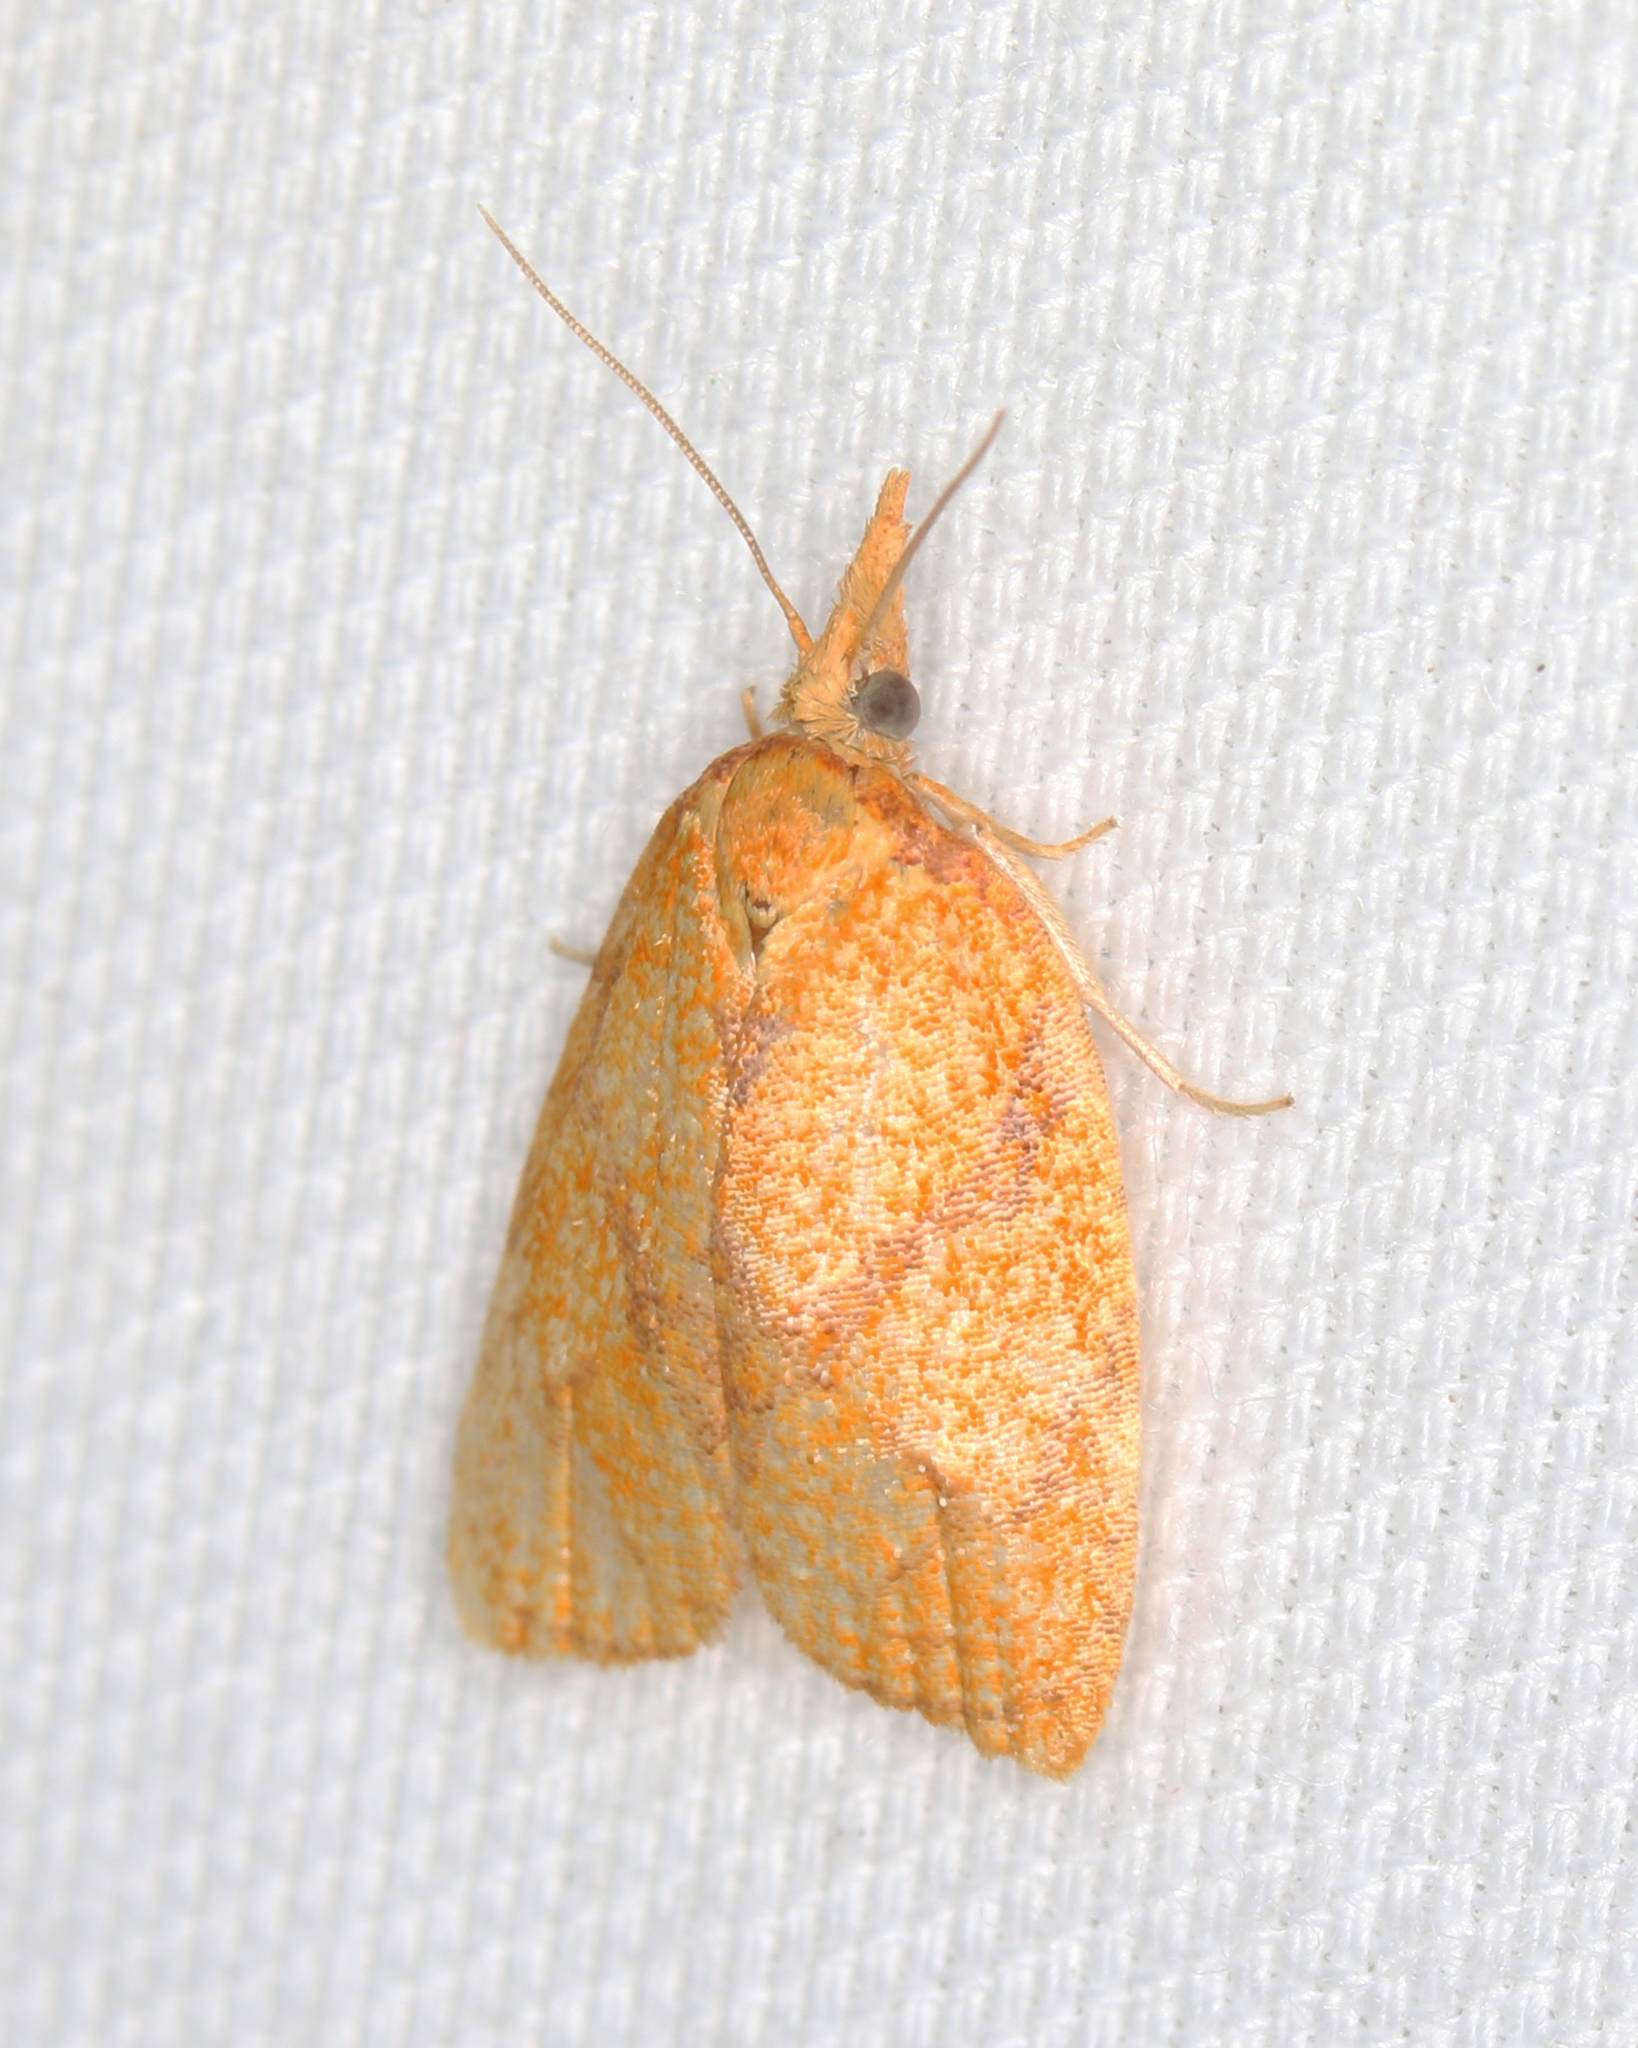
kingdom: Animalia
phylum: Arthropoda
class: Insecta
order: Lepidoptera
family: Tortricidae
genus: Cenopis
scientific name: Cenopis reticulatana
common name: Reticulated fruitworm moth
